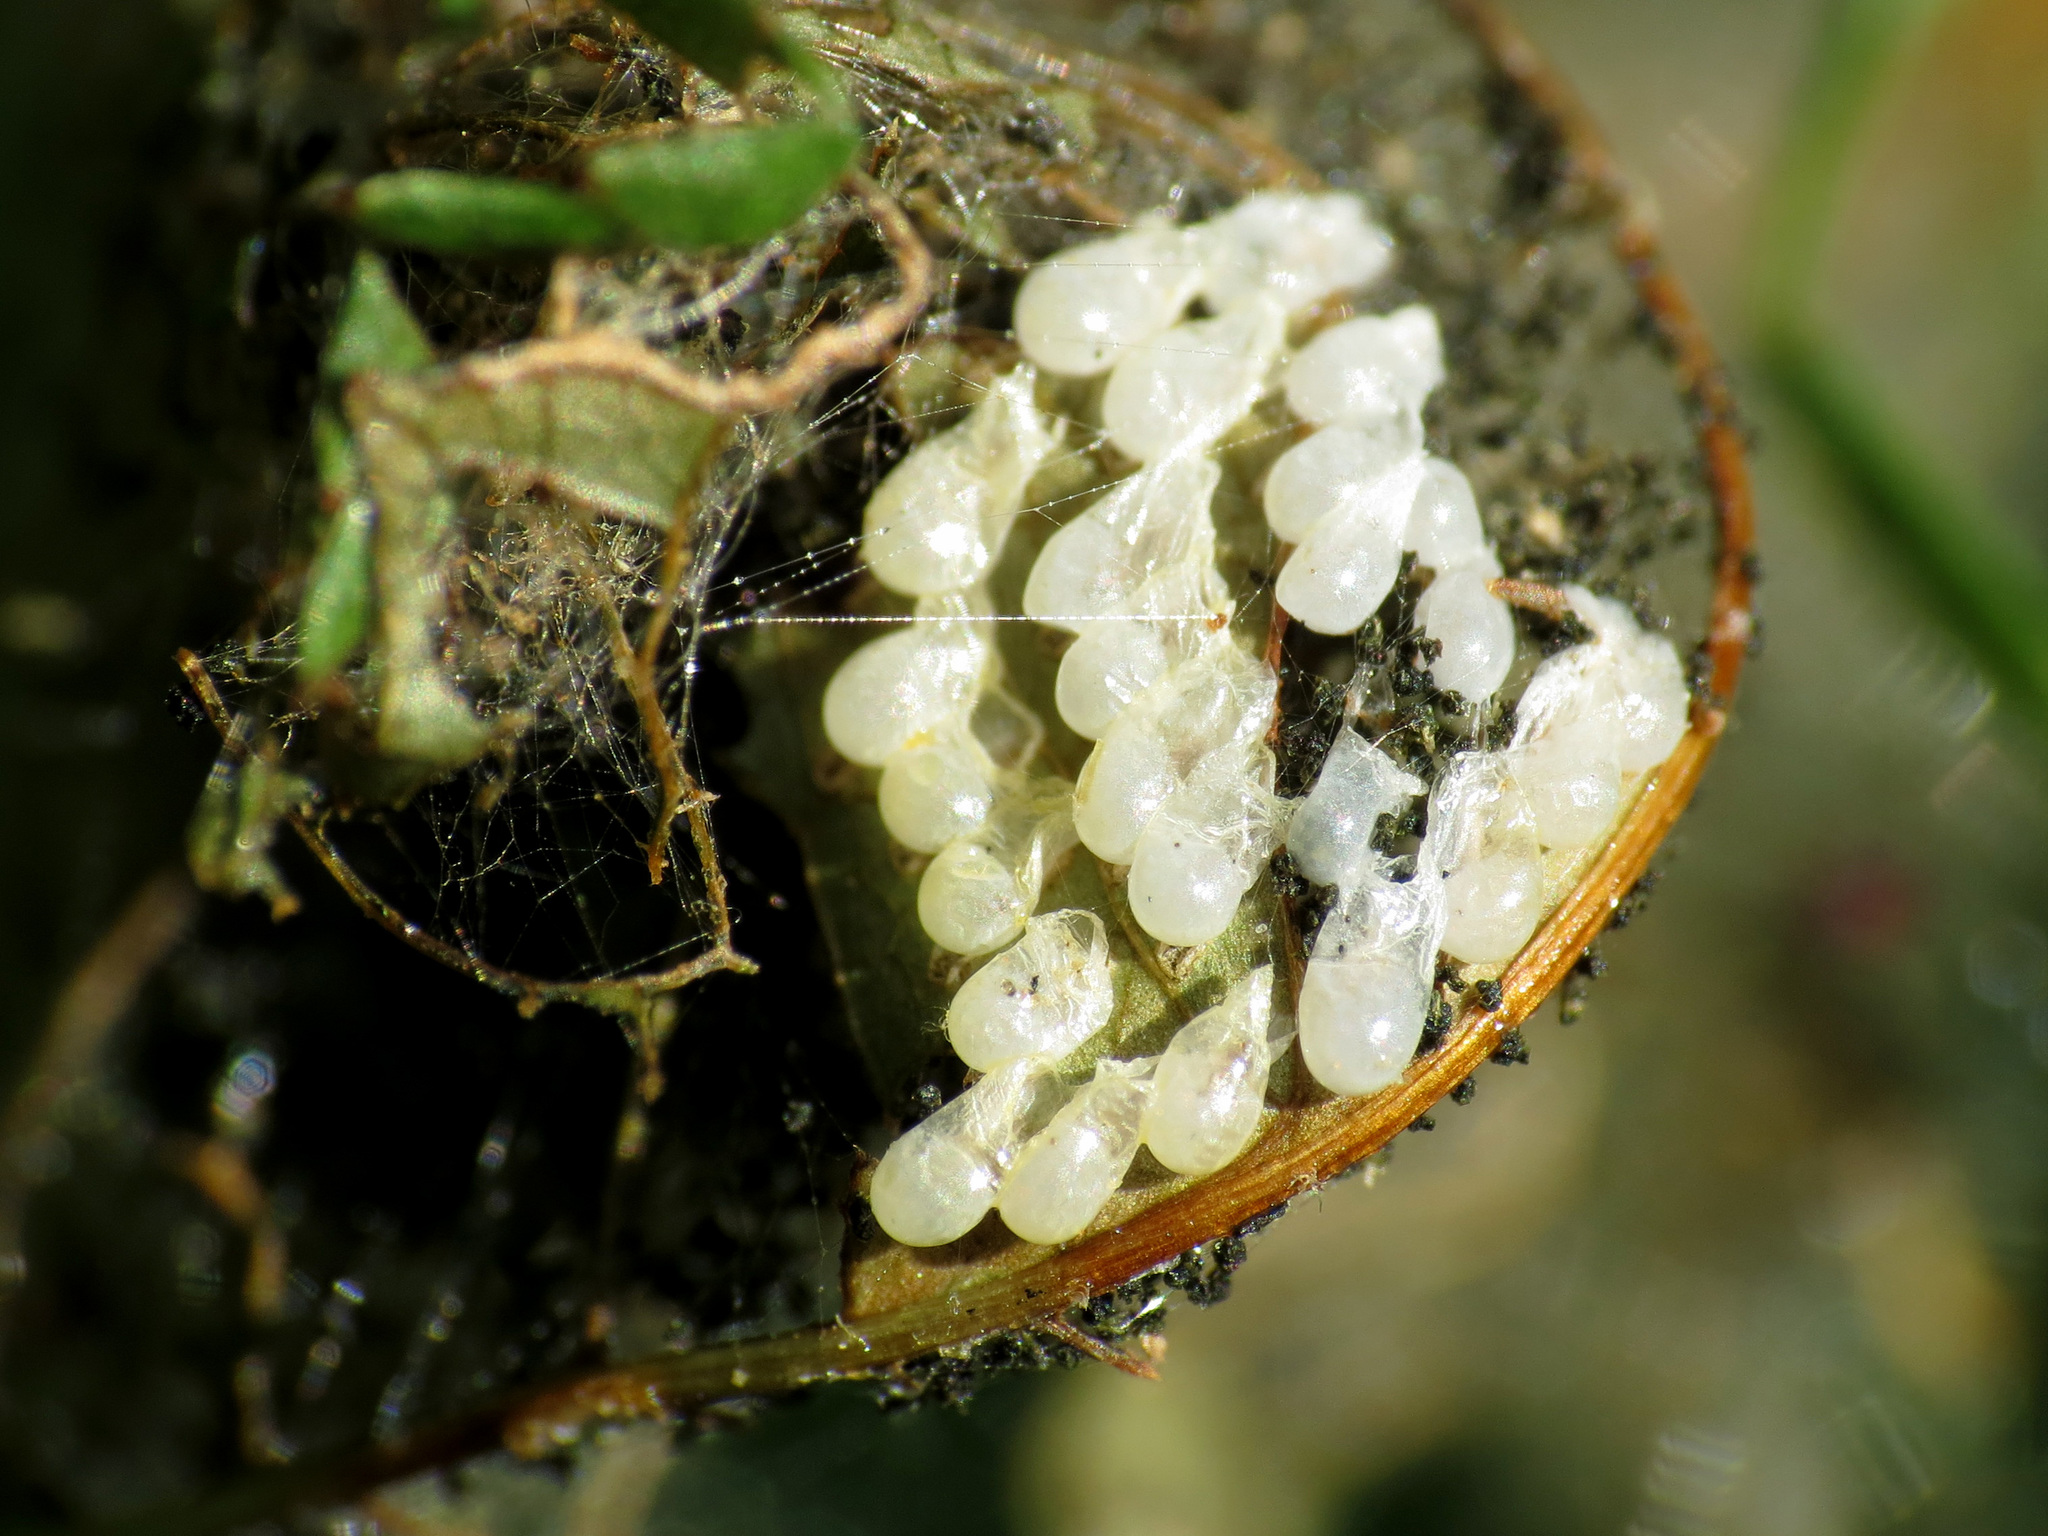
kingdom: Animalia
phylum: Arthropoda
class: Insecta
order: Hymenoptera
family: Pamphiliidae
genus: Neurotoma
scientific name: Neurotoma edwardi
